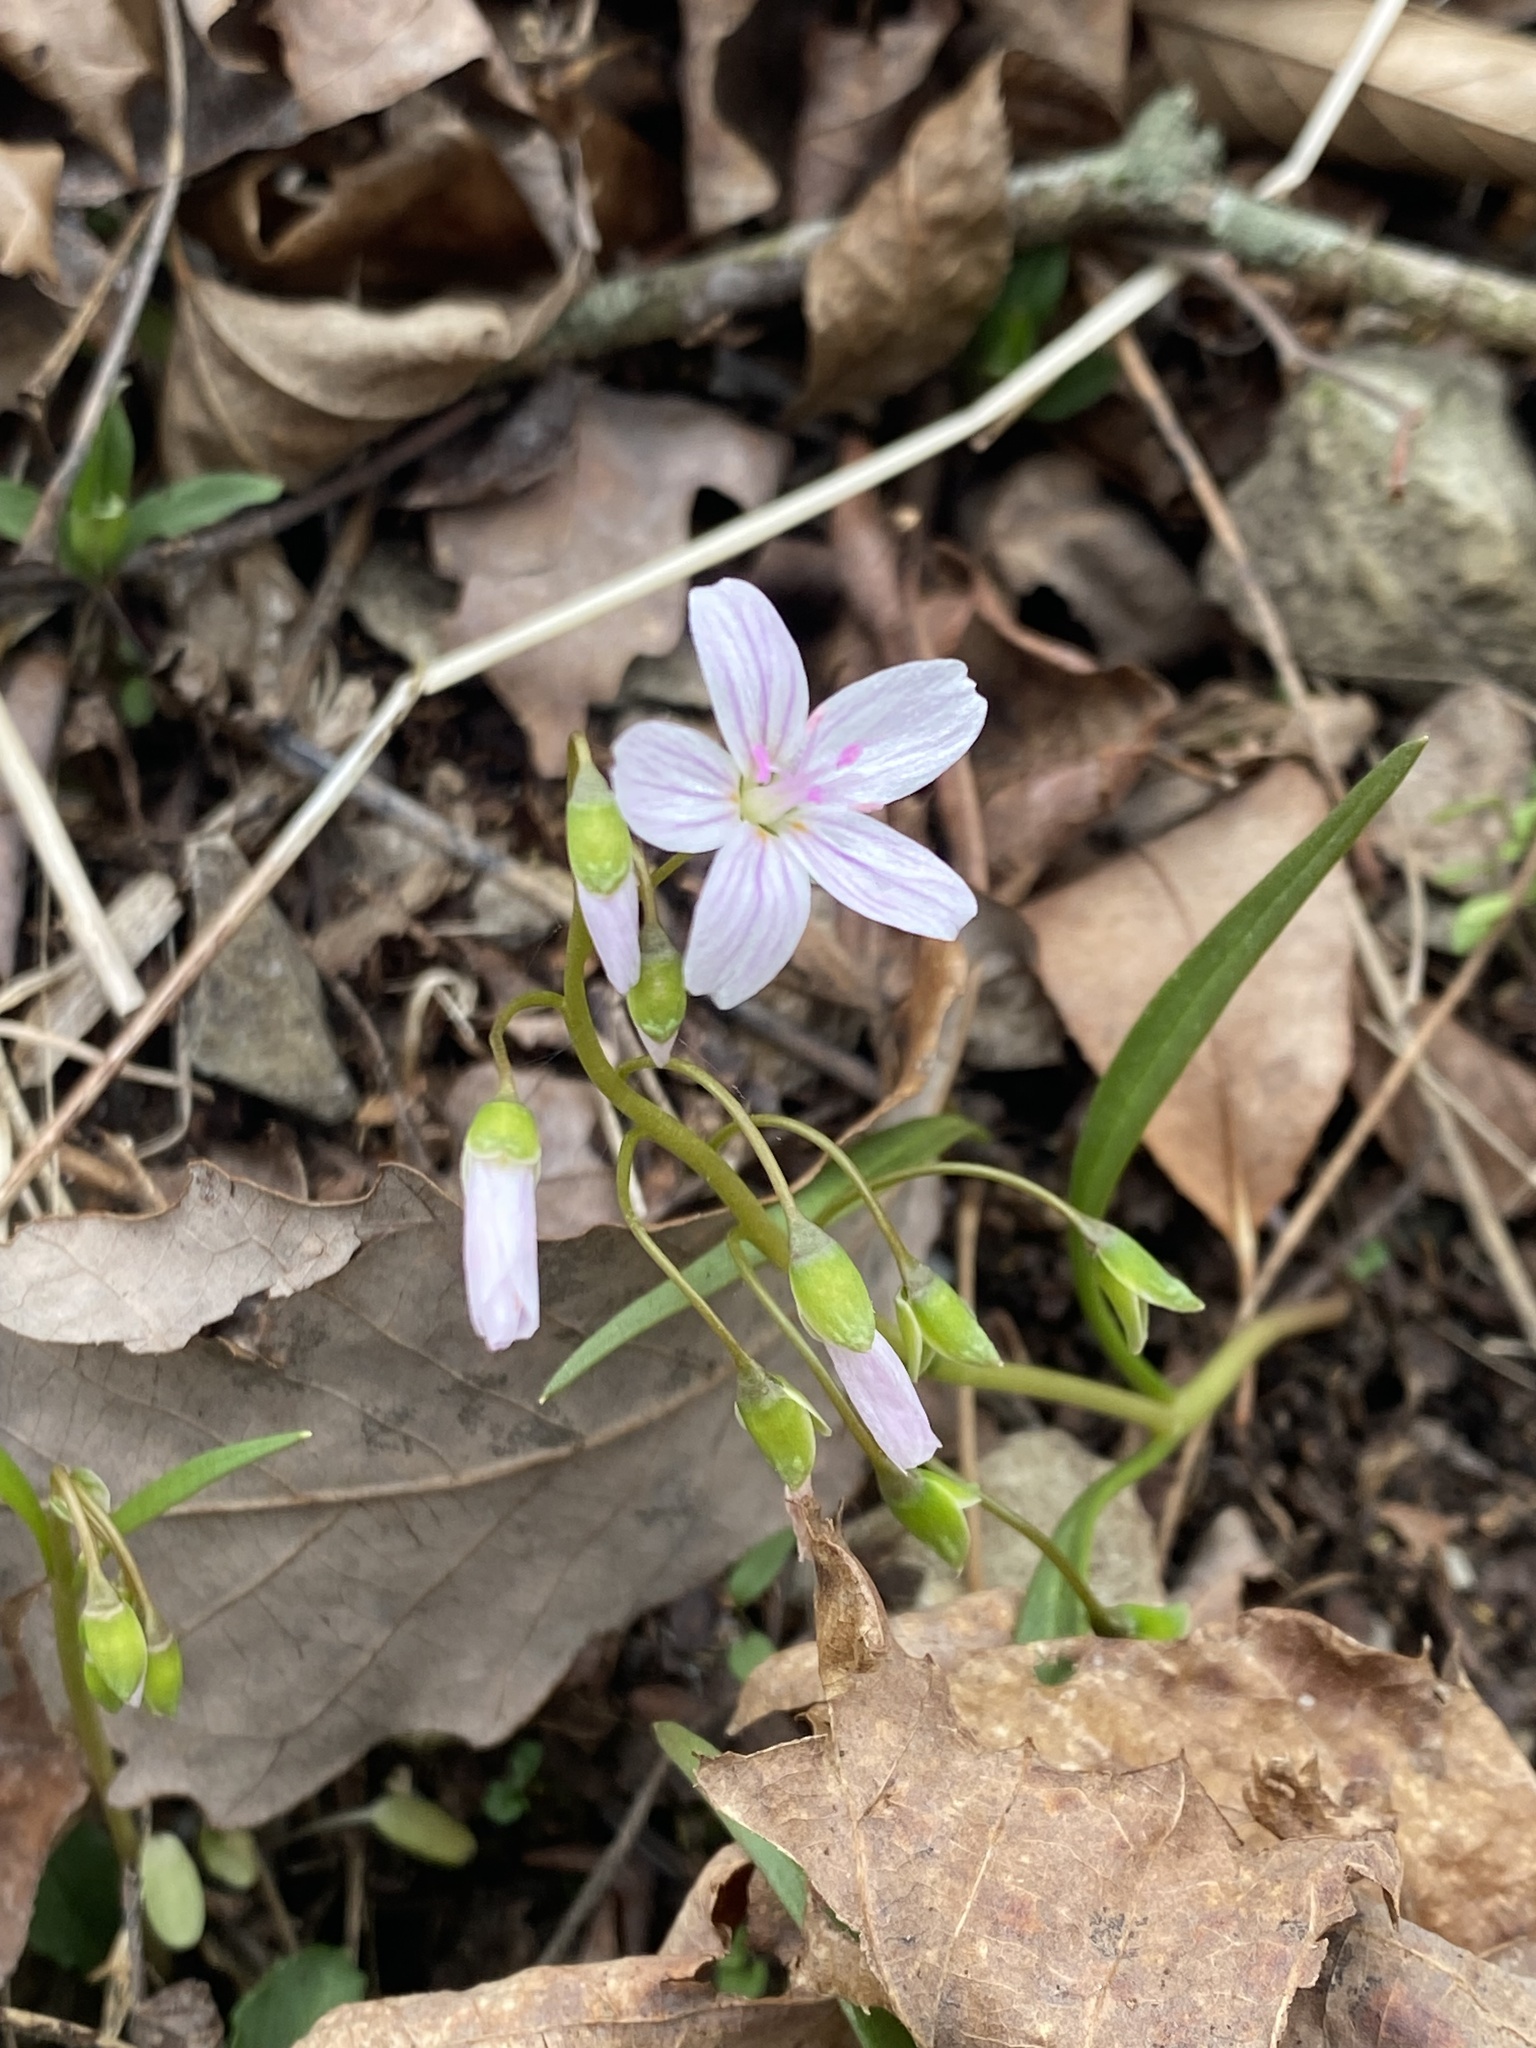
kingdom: Plantae
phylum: Tracheophyta
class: Magnoliopsida
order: Caryophyllales
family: Montiaceae
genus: Claytonia
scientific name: Claytonia virginica
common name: Virginia springbeauty
